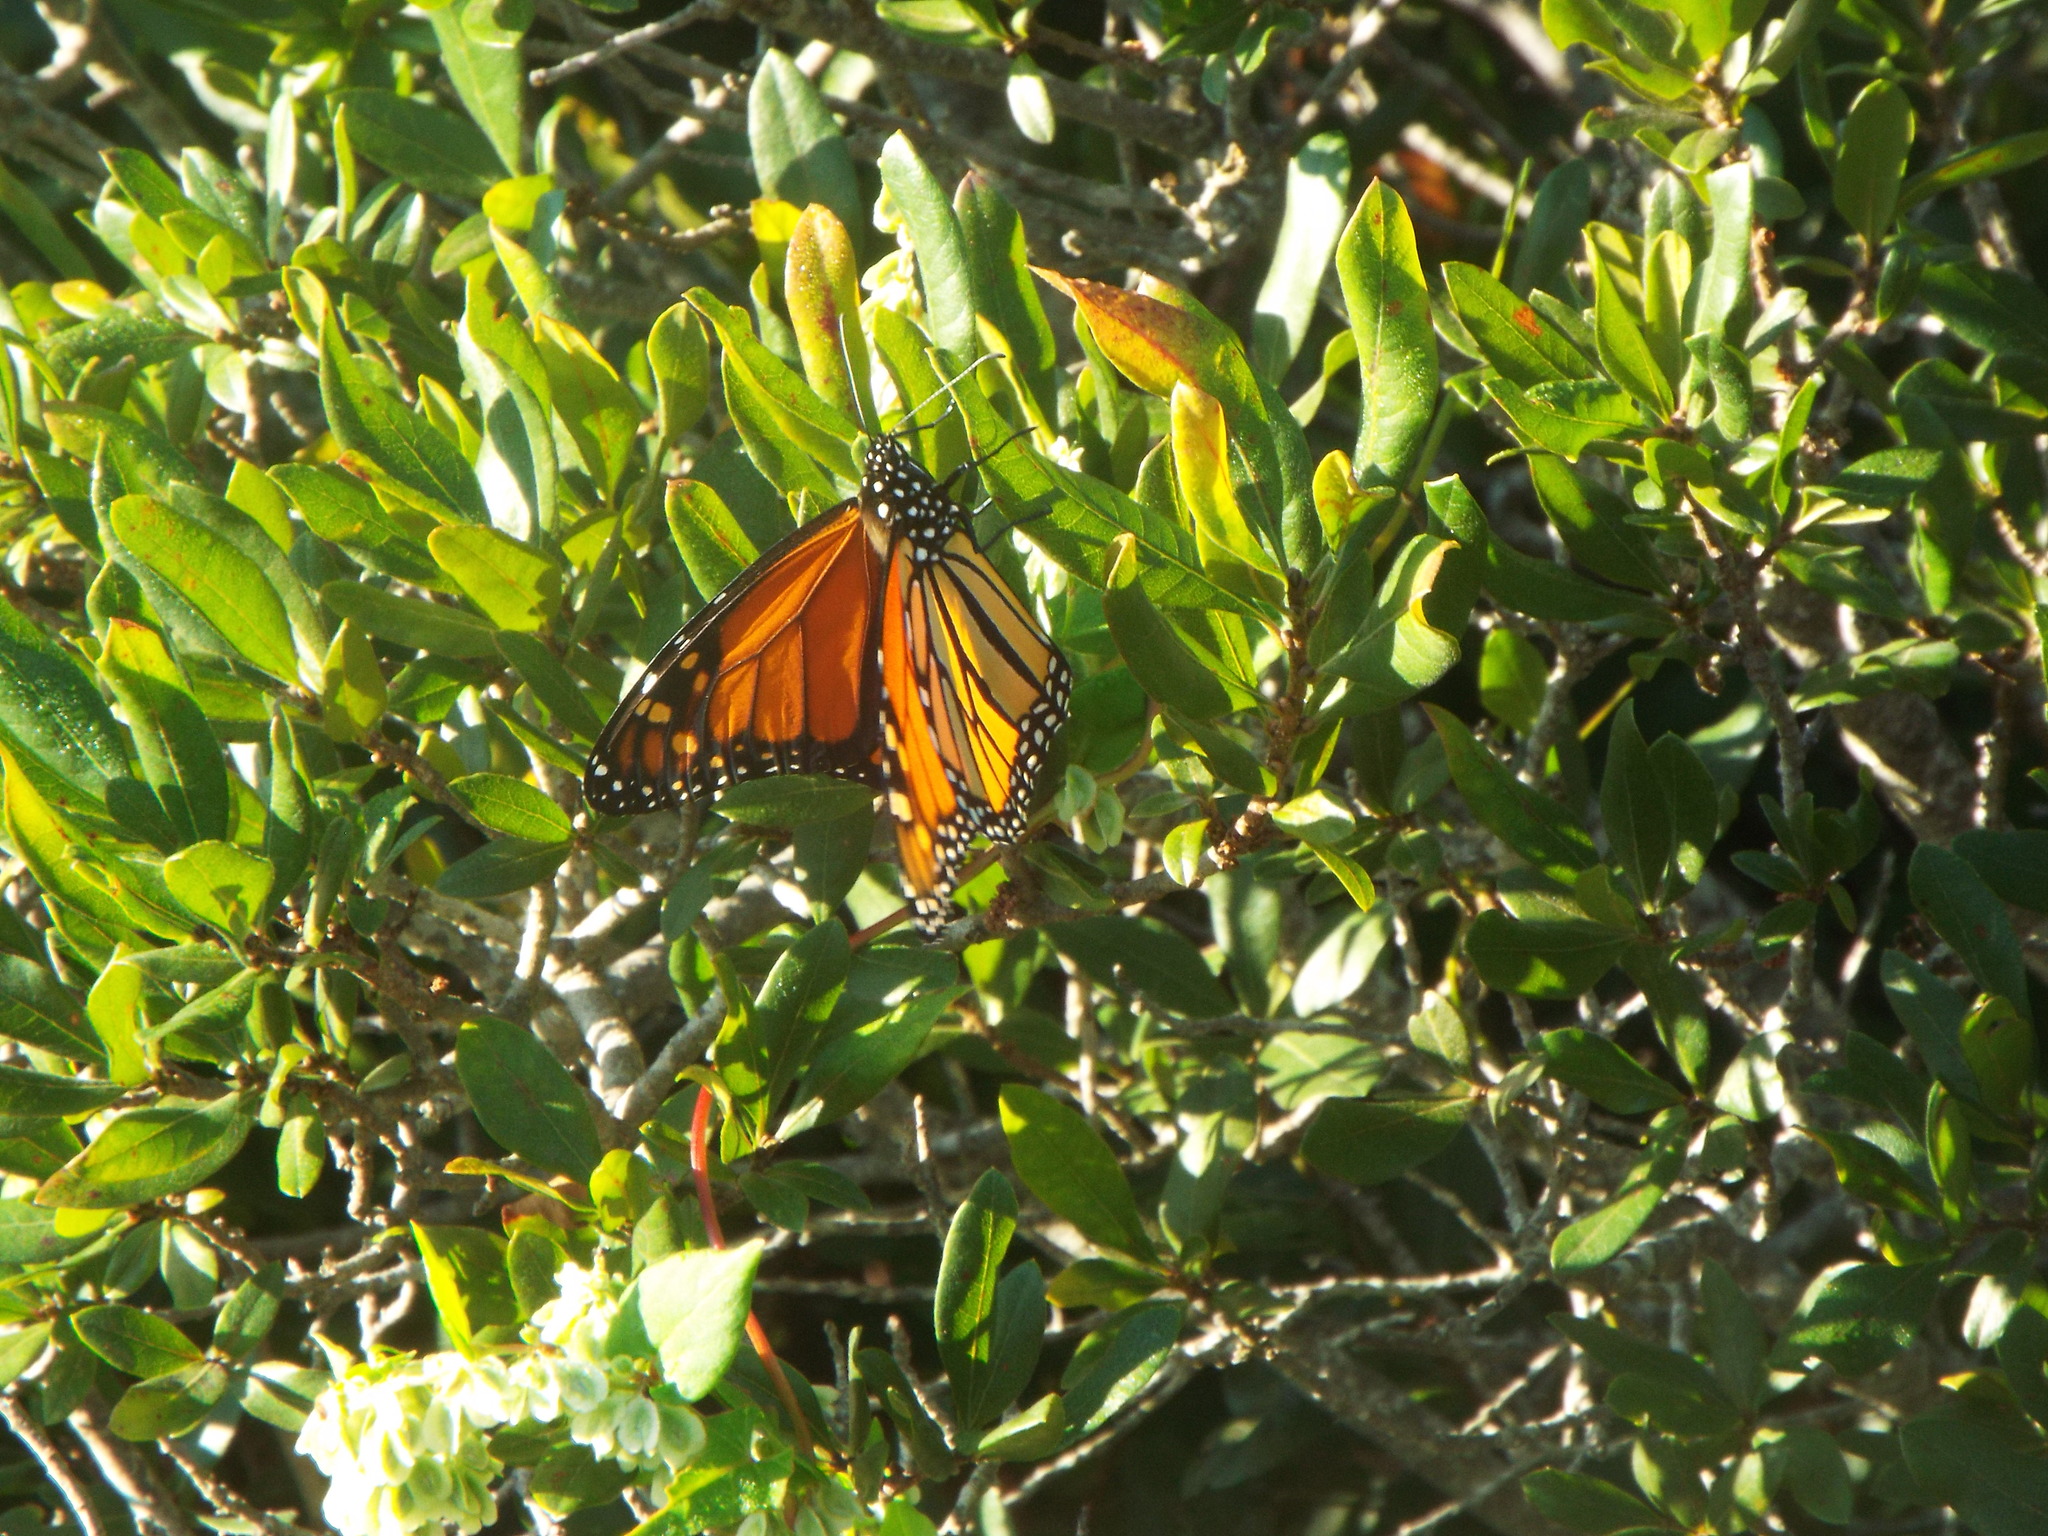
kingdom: Animalia
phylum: Arthropoda
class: Insecta
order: Lepidoptera
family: Nymphalidae
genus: Danaus
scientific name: Danaus plexippus
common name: Monarch
